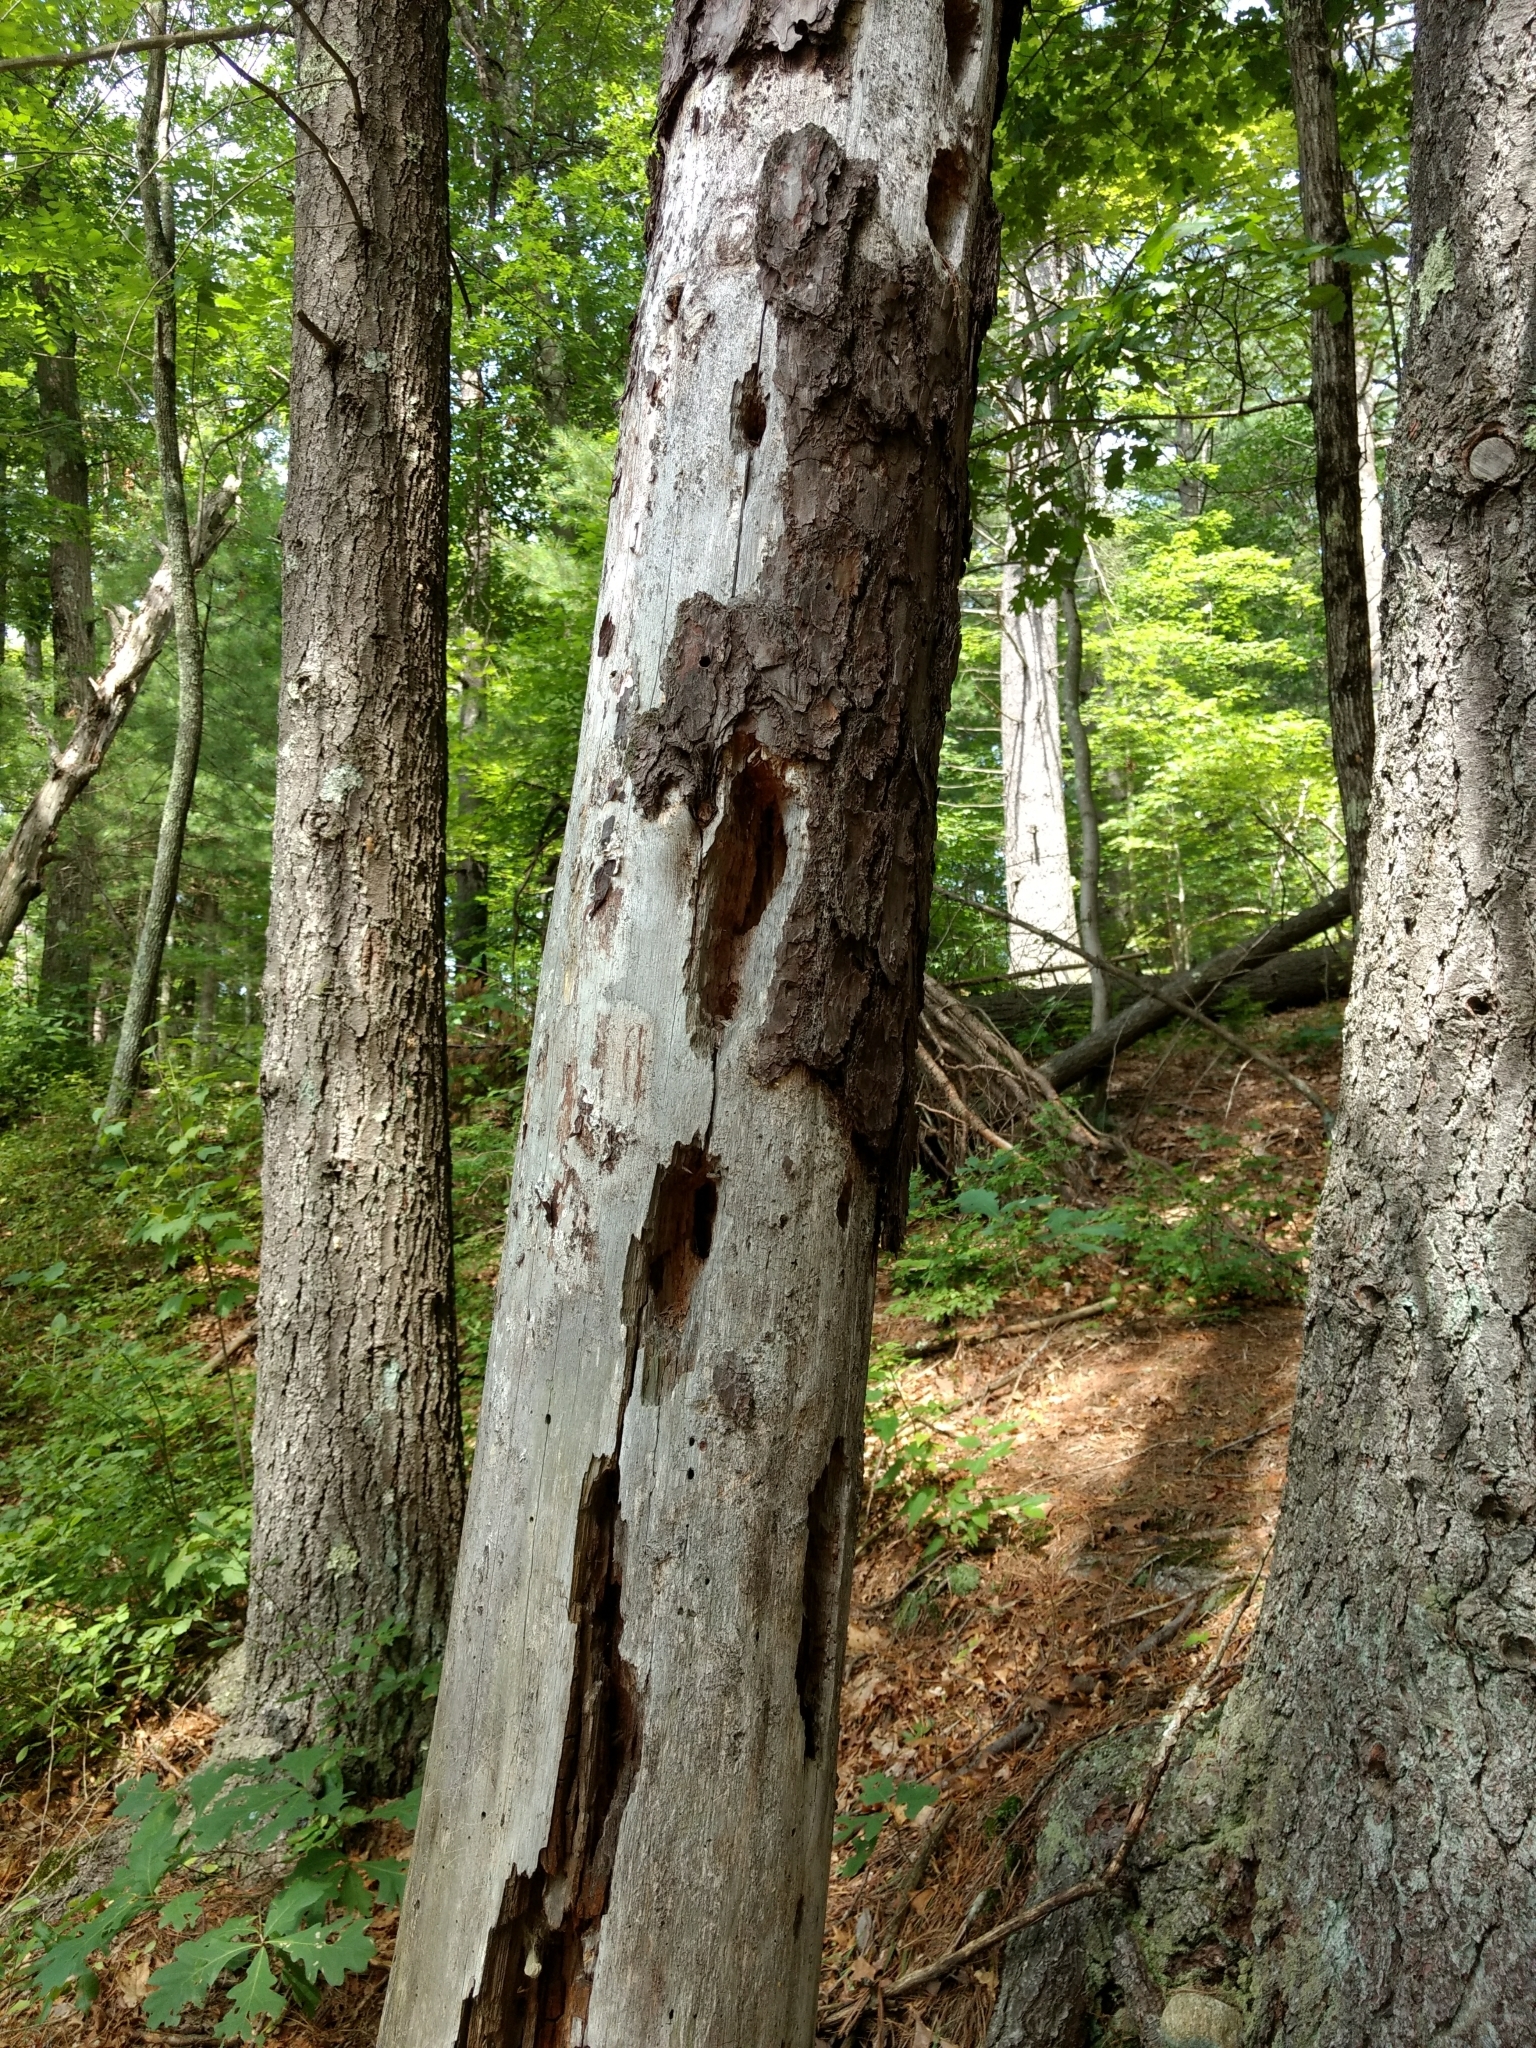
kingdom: Animalia
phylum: Chordata
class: Aves
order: Piciformes
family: Picidae
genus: Dryocopus
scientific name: Dryocopus pileatus
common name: Pileated woodpecker
